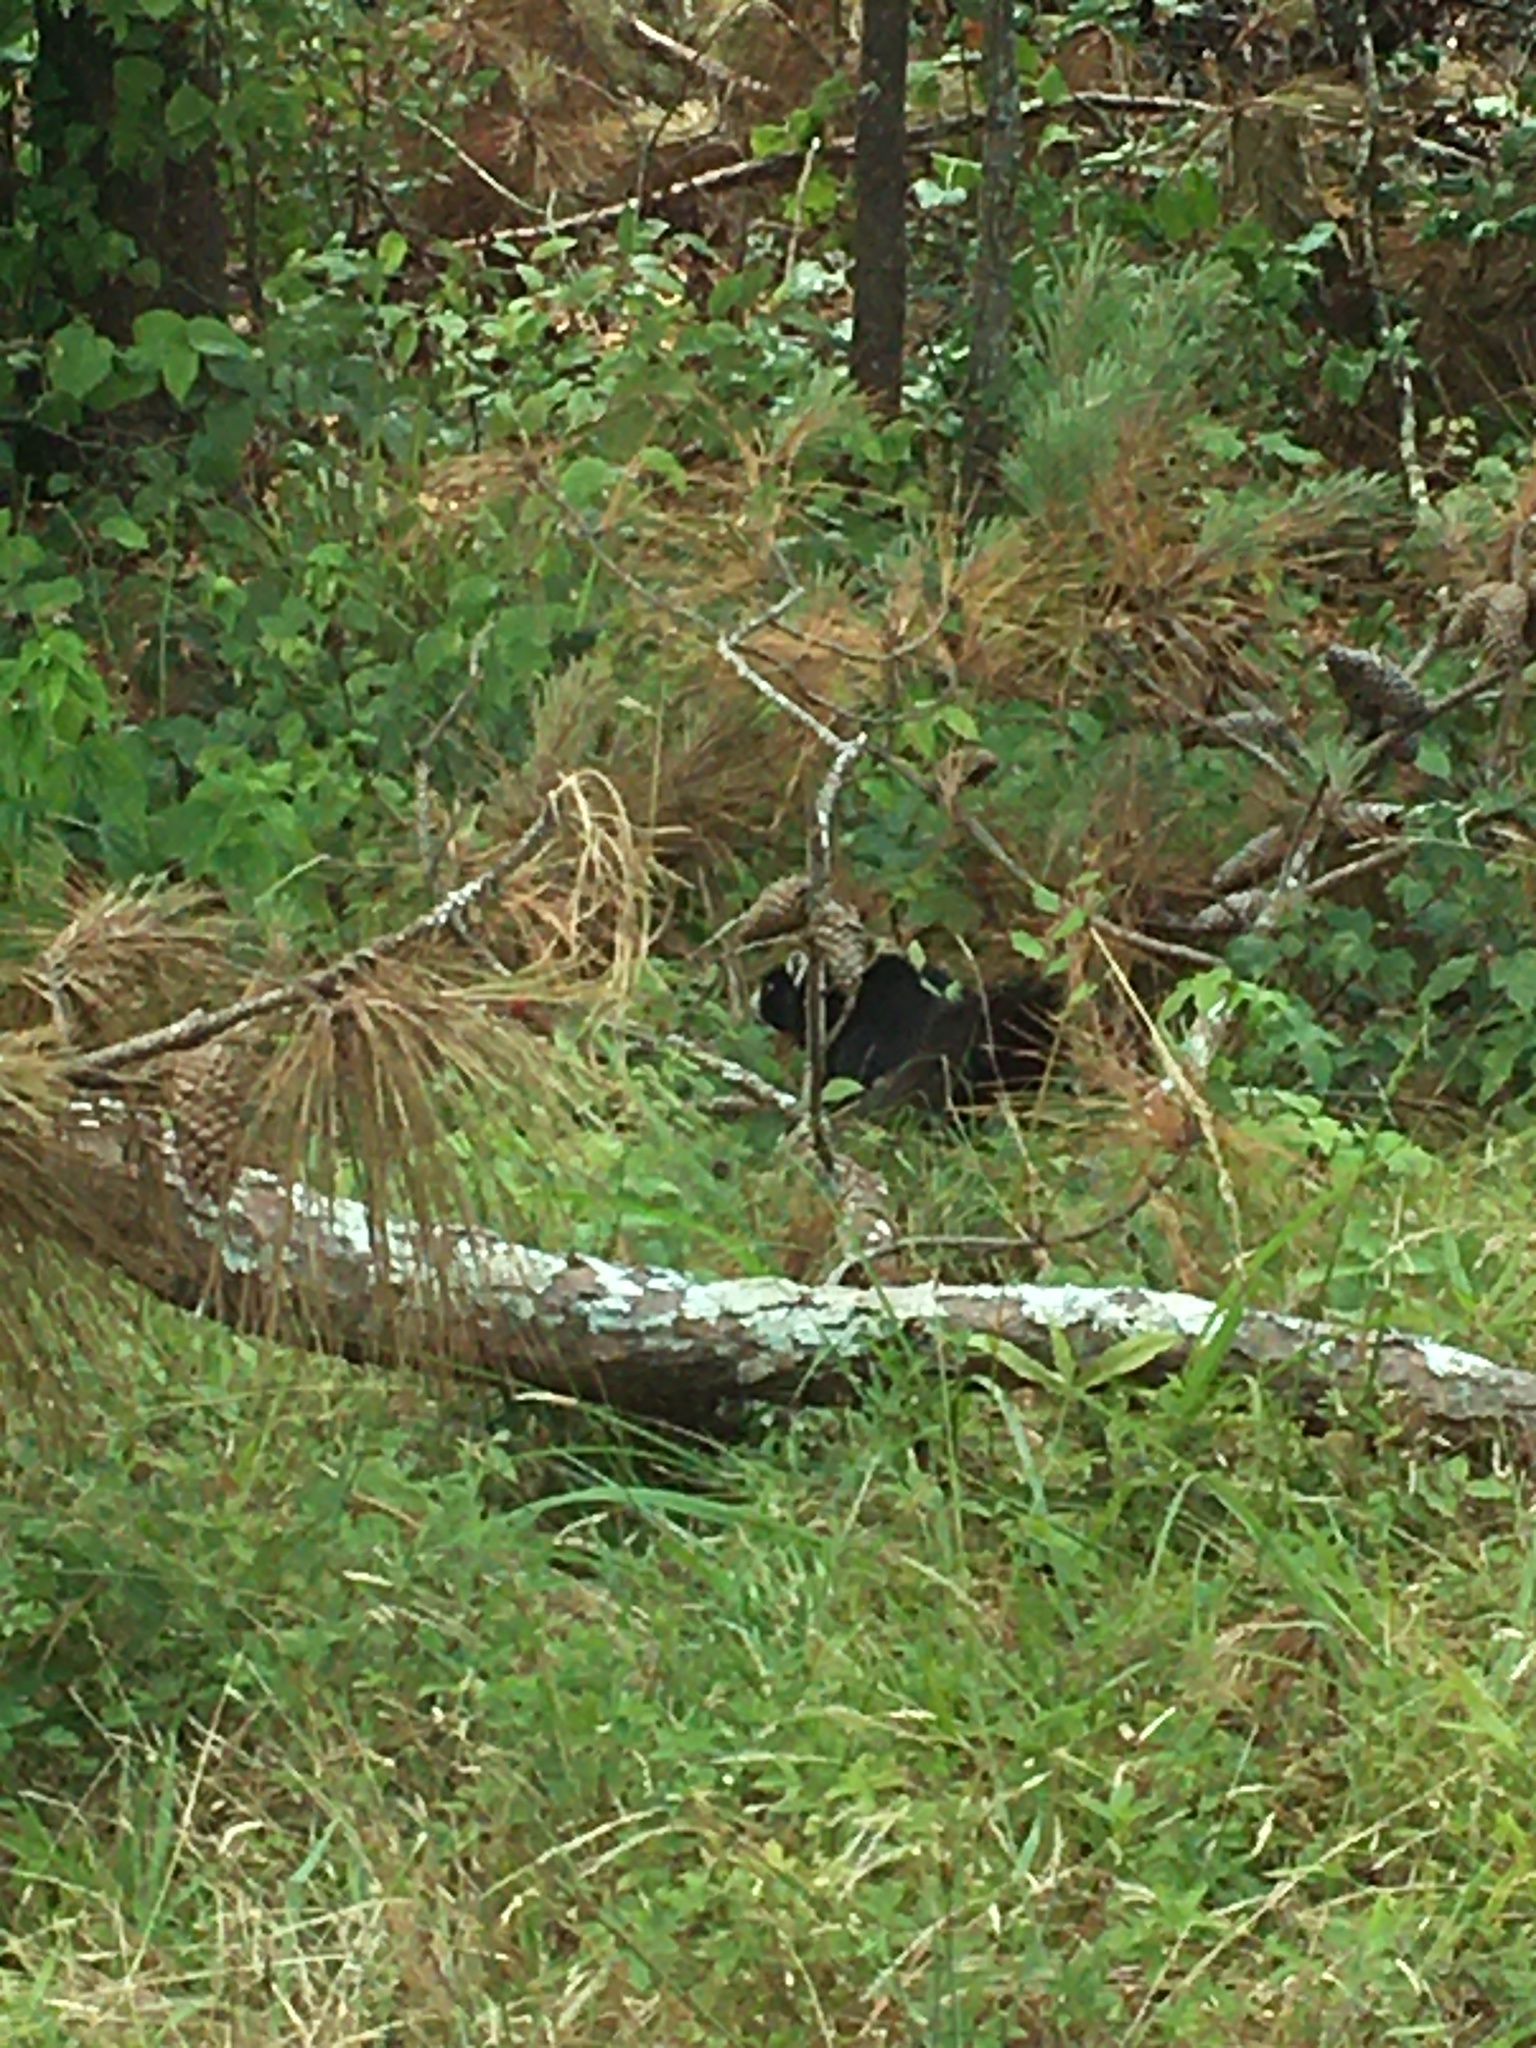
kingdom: Animalia
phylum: Chordata
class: Mammalia
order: Rodentia
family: Sciuridae
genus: Sciurus
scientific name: Sciurus niger
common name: Fox squirrel
